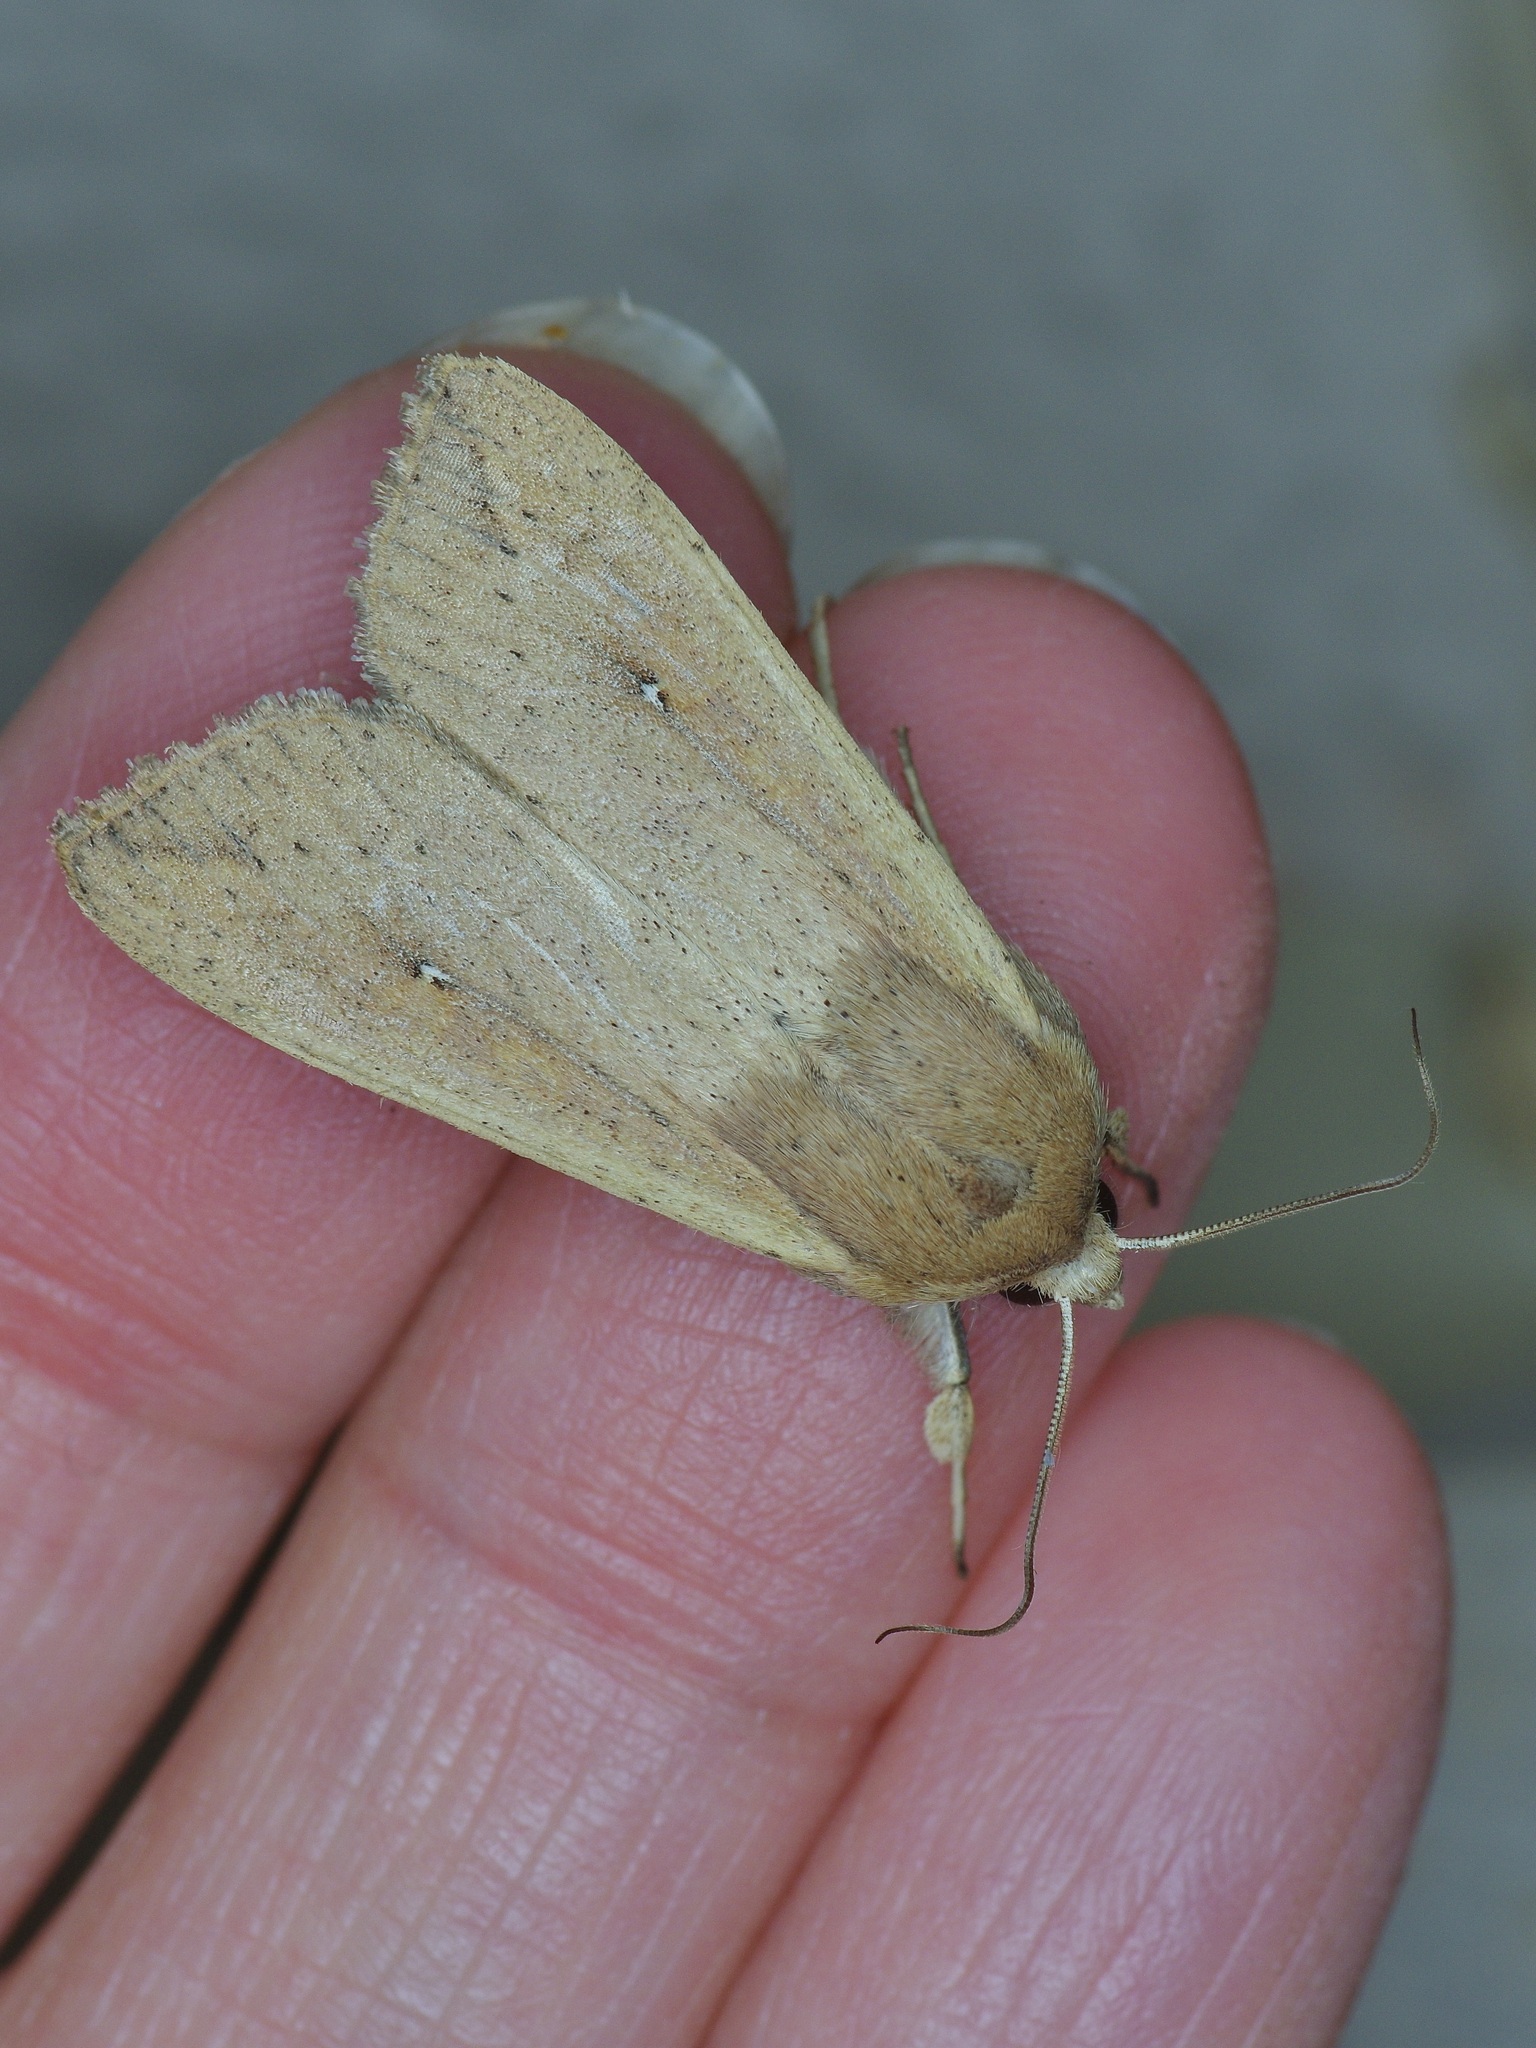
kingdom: Animalia
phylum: Arthropoda
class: Insecta
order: Lepidoptera
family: Noctuidae
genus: Mythimna
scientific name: Mythimna unipuncta
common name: White-speck
